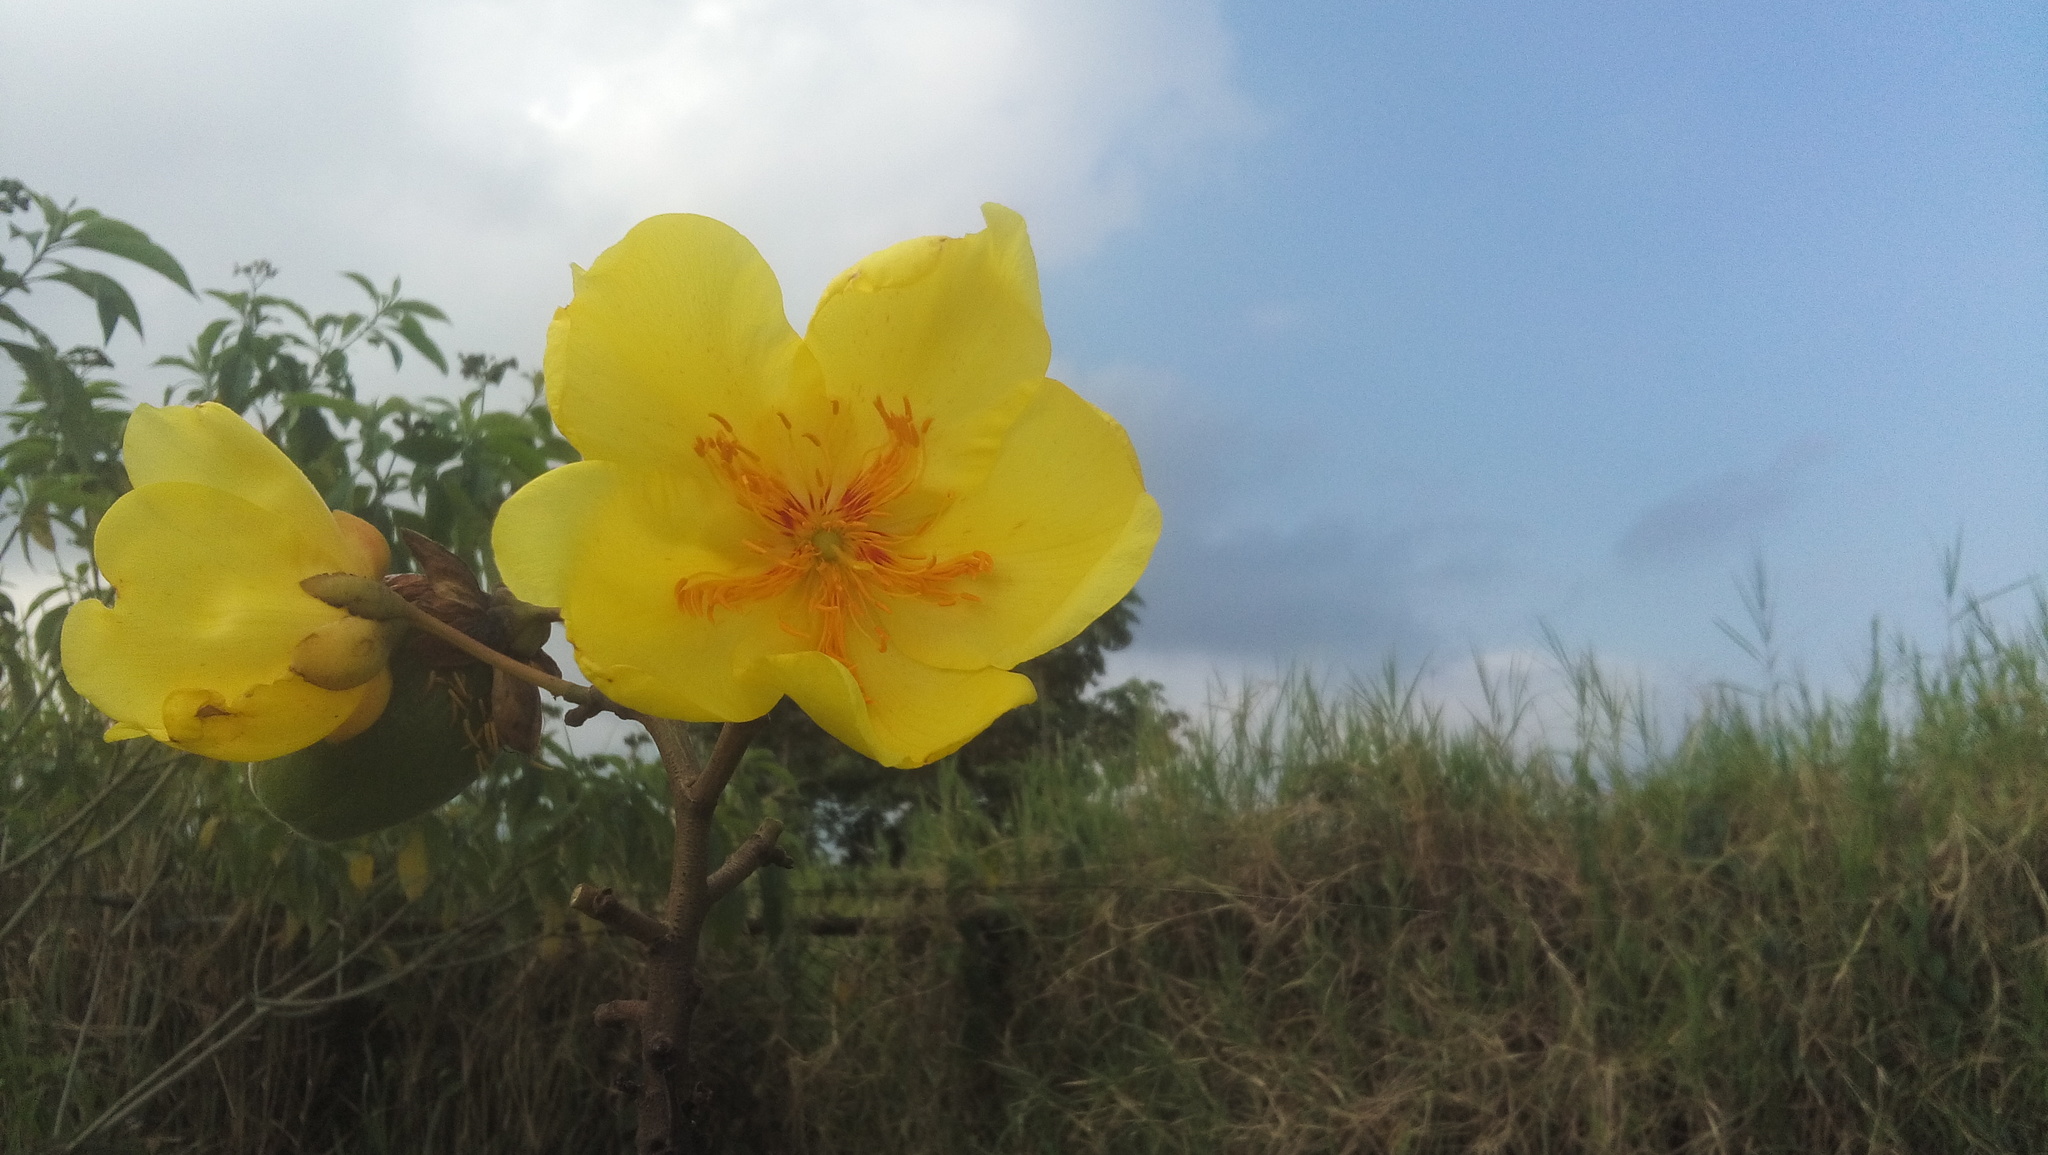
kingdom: Plantae
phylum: Tracheophyta
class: Magnoliopsida
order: Malvales
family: Cochlospermaceae
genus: Cochlospermum
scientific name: Cochlospermum vitifolium
